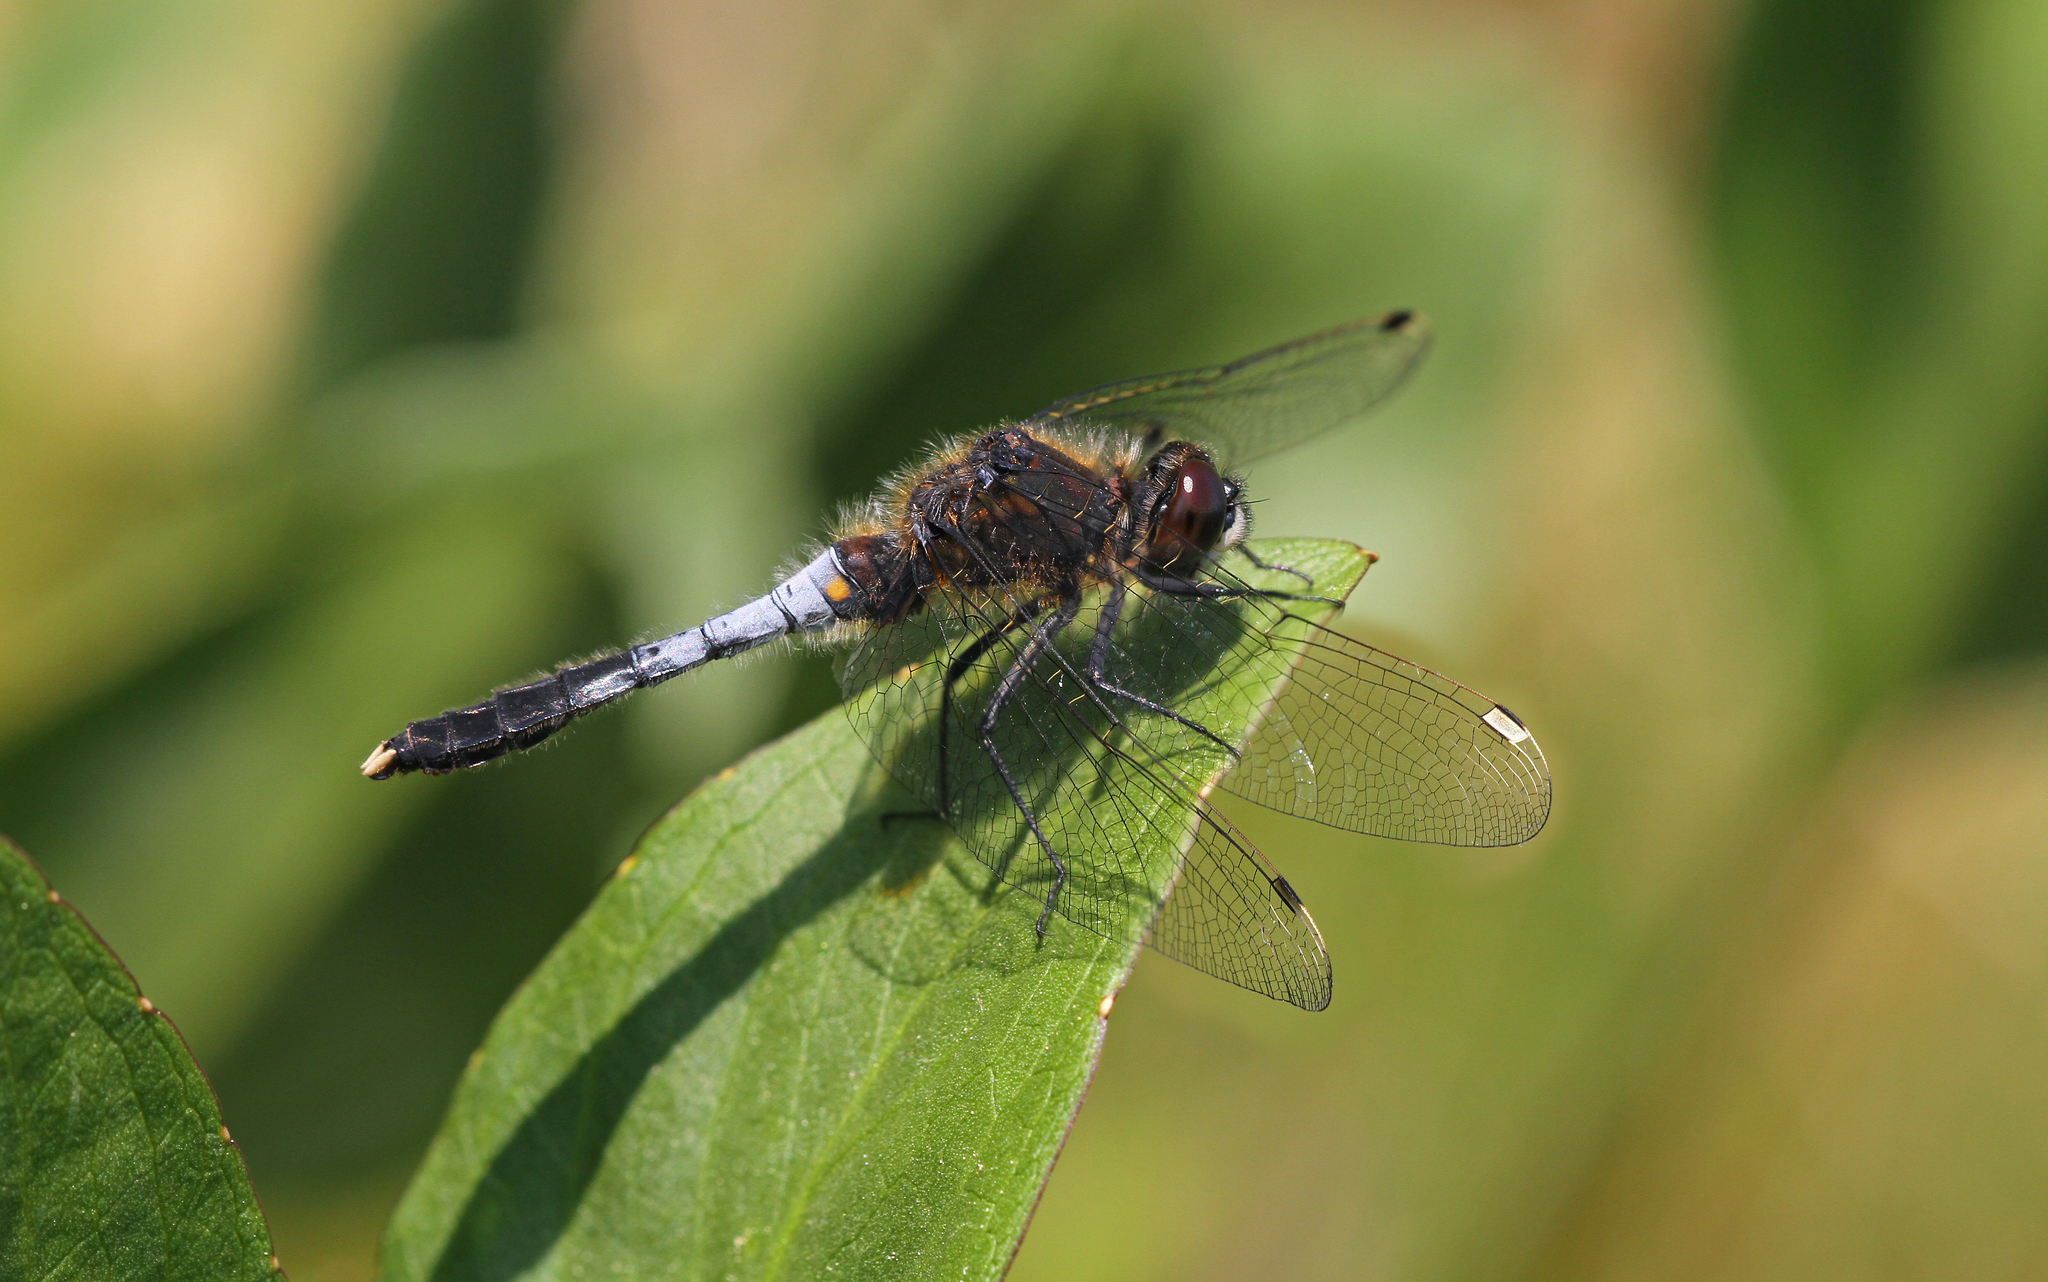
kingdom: Animalia
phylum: Arthropoda
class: Insecta
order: Odonata
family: Libellulidae
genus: Leucorrhinia
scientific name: Leucorrhinia caudalis
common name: Lilypad whiteface
